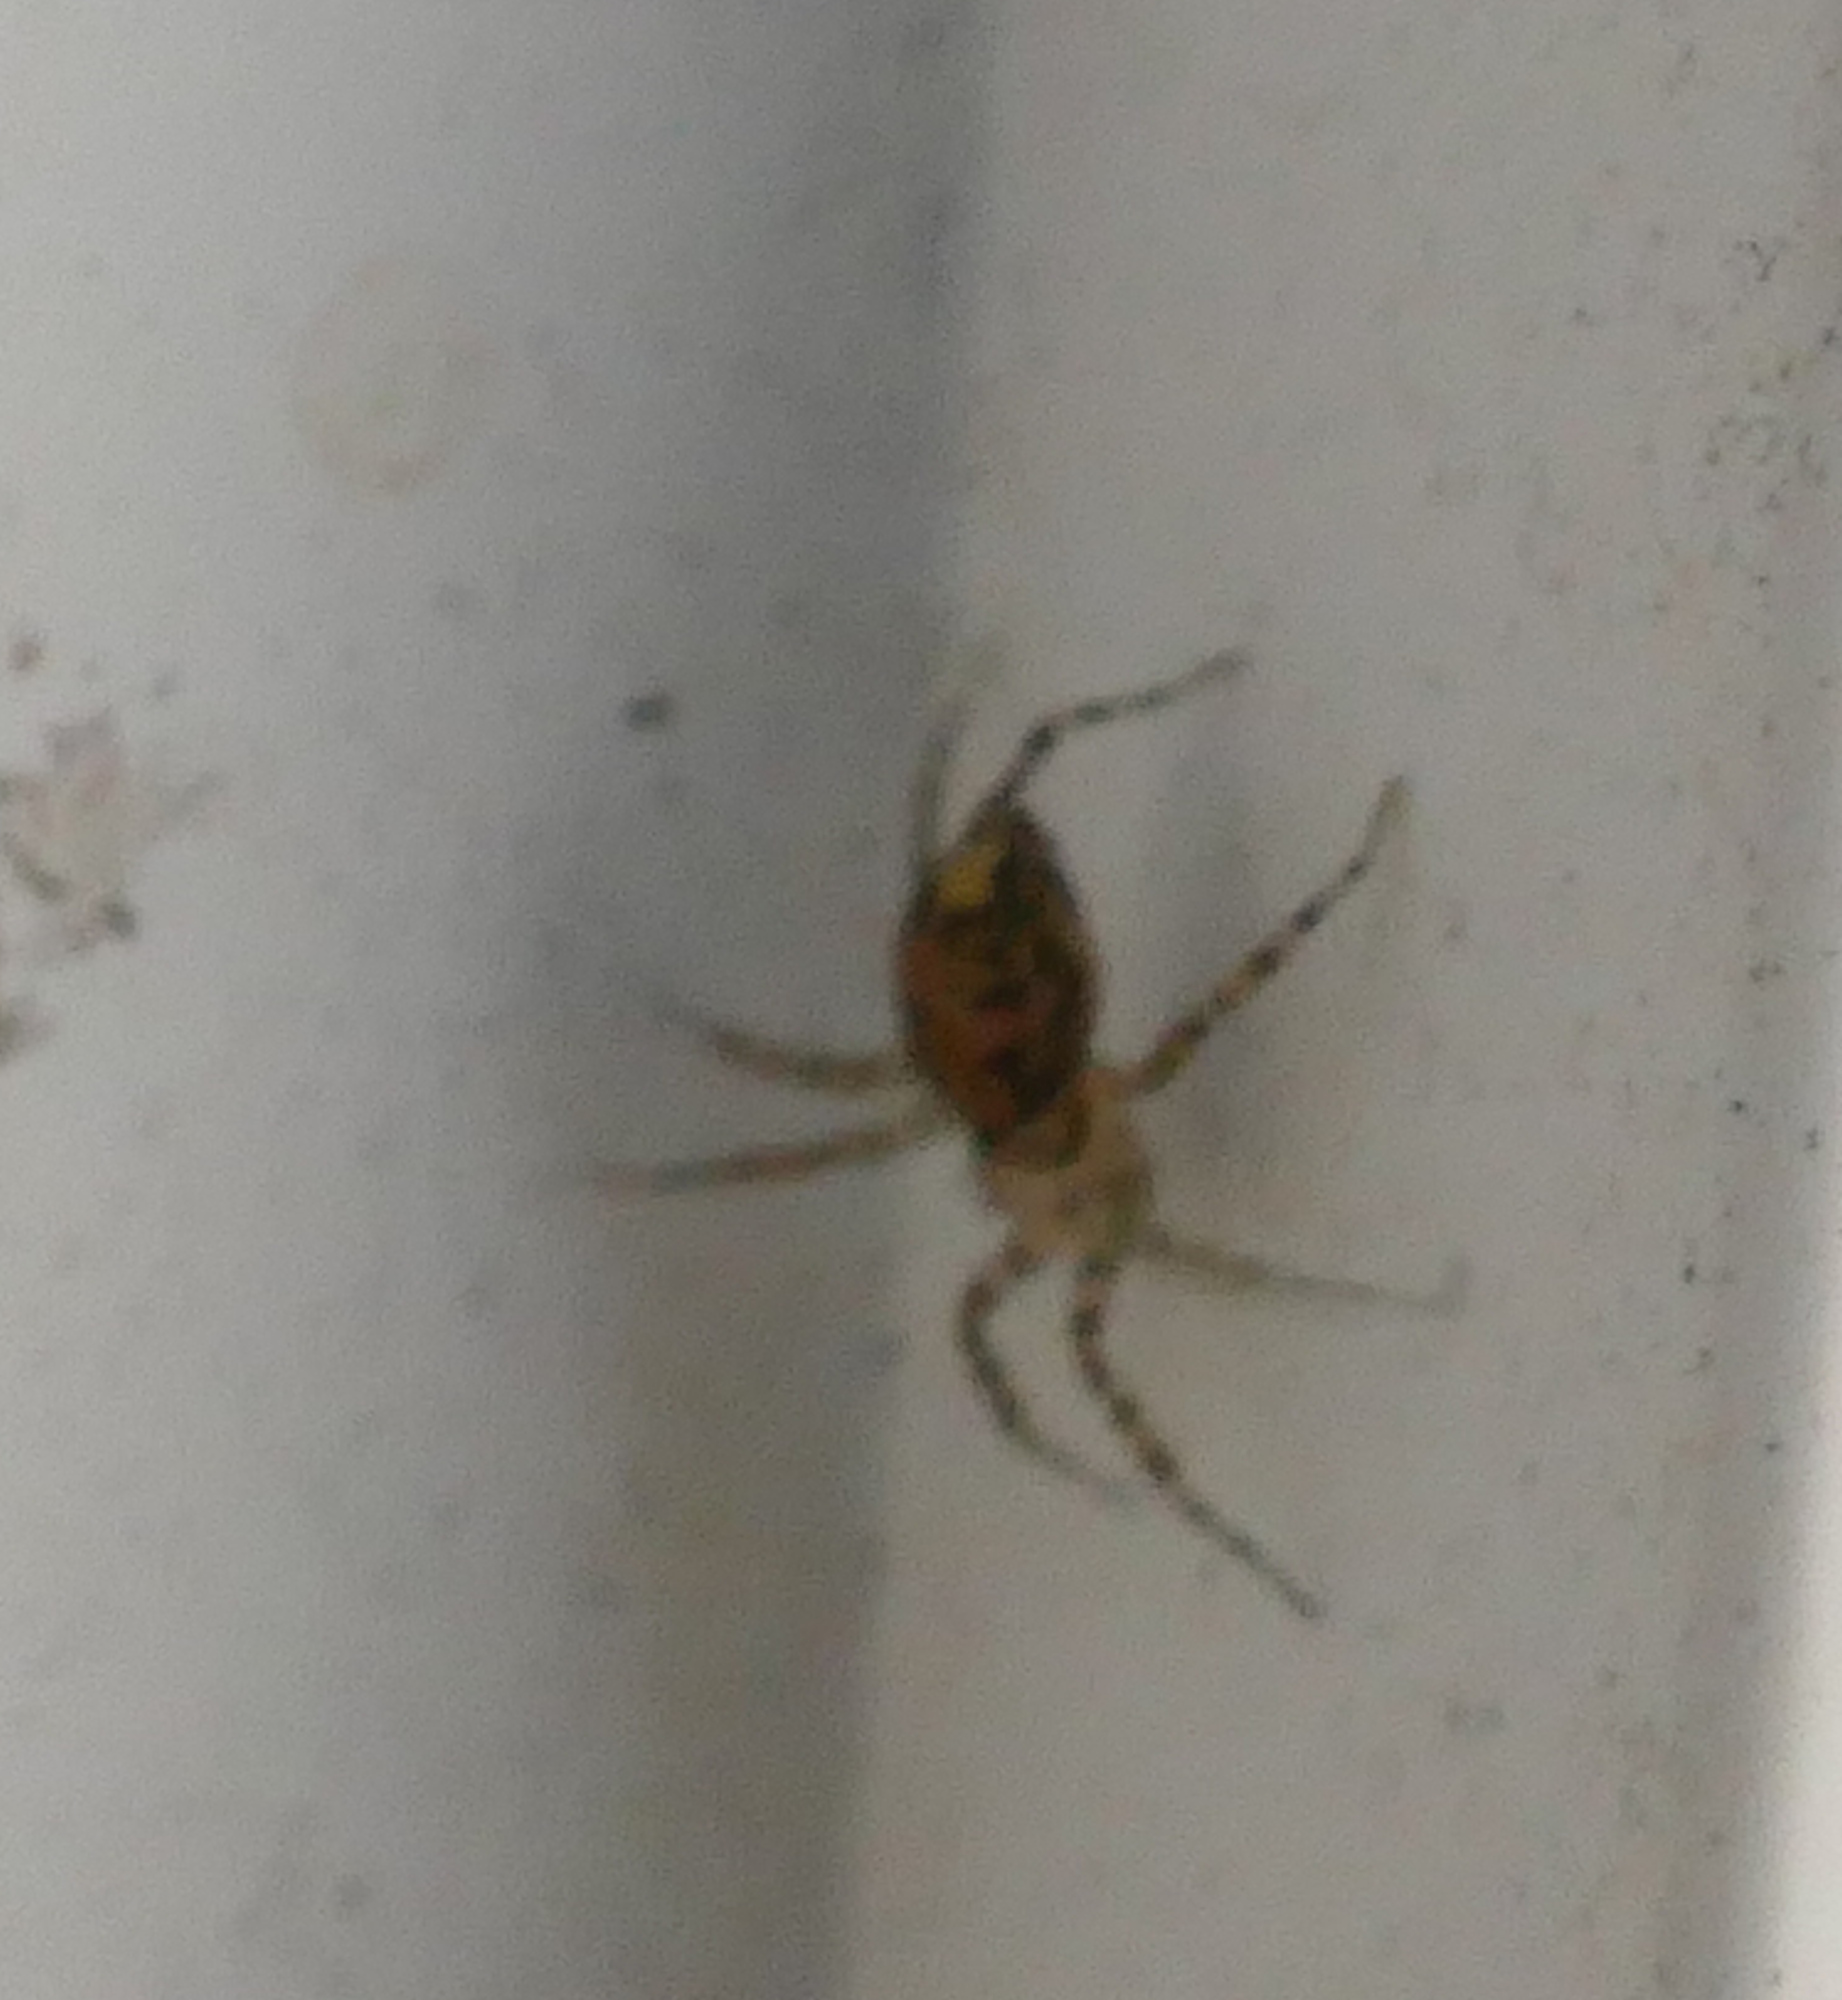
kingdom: Animalia
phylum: Arthropoda
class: Arachnida
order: Araneae
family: Oecobiidae
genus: Oecobius
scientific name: Oecobius navus
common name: Flatmesh weaver
